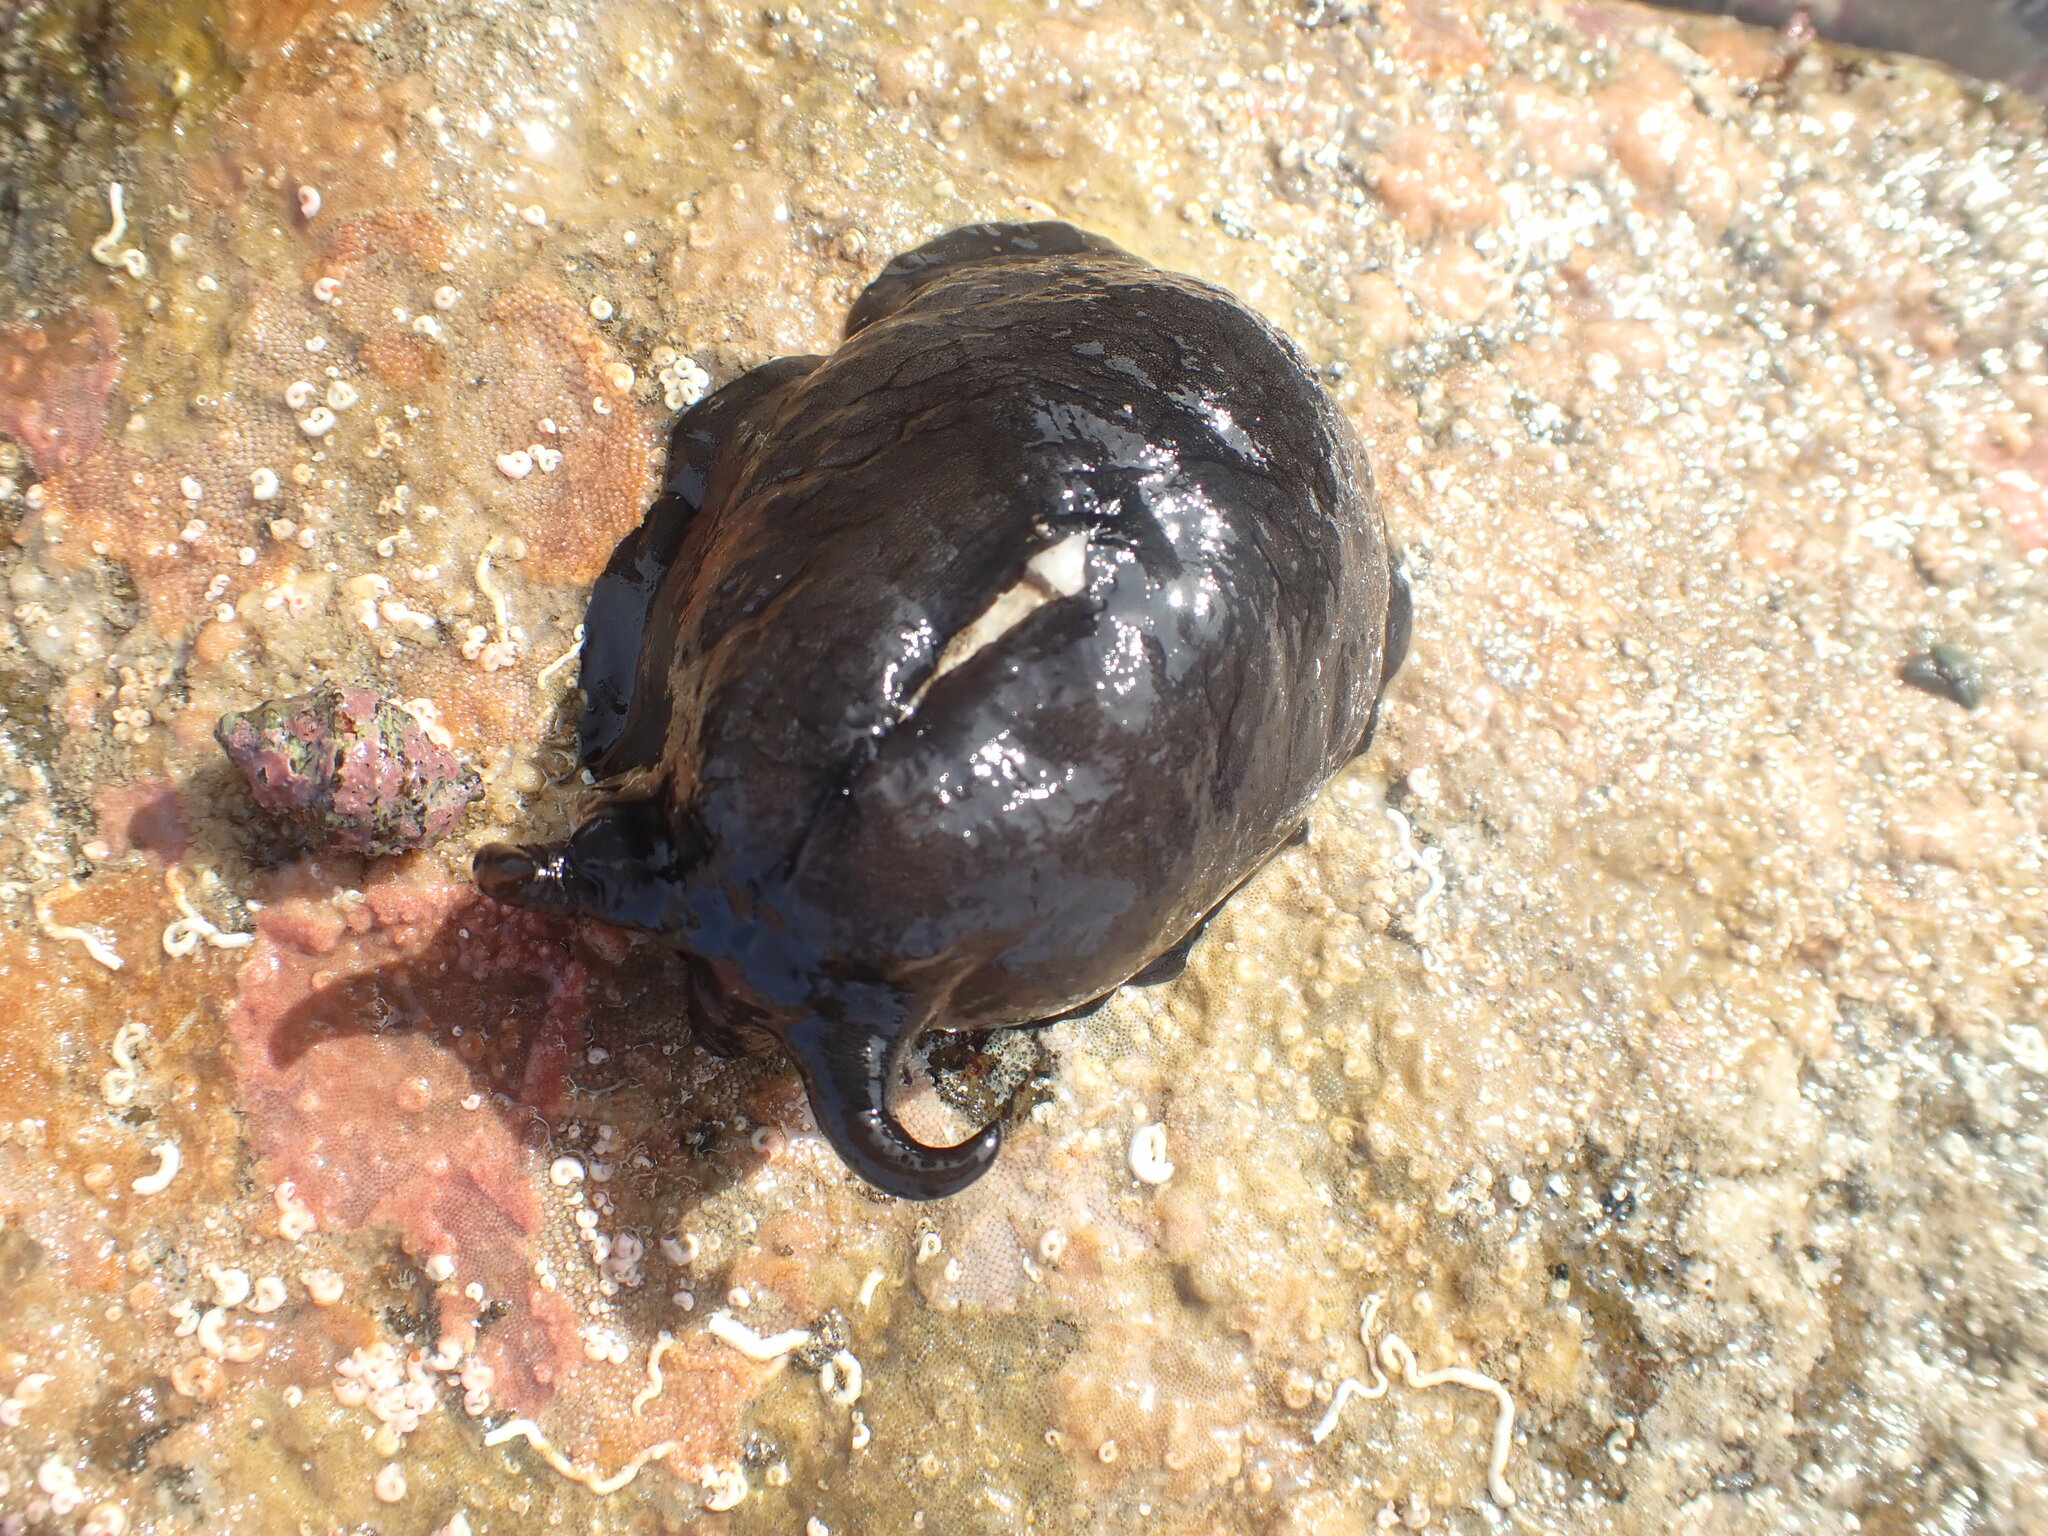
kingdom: Animalia
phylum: Mollusca
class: Gastropoda
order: Lepetellida
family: Fissurellidae
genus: Scutus
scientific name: Scutus breviculus
